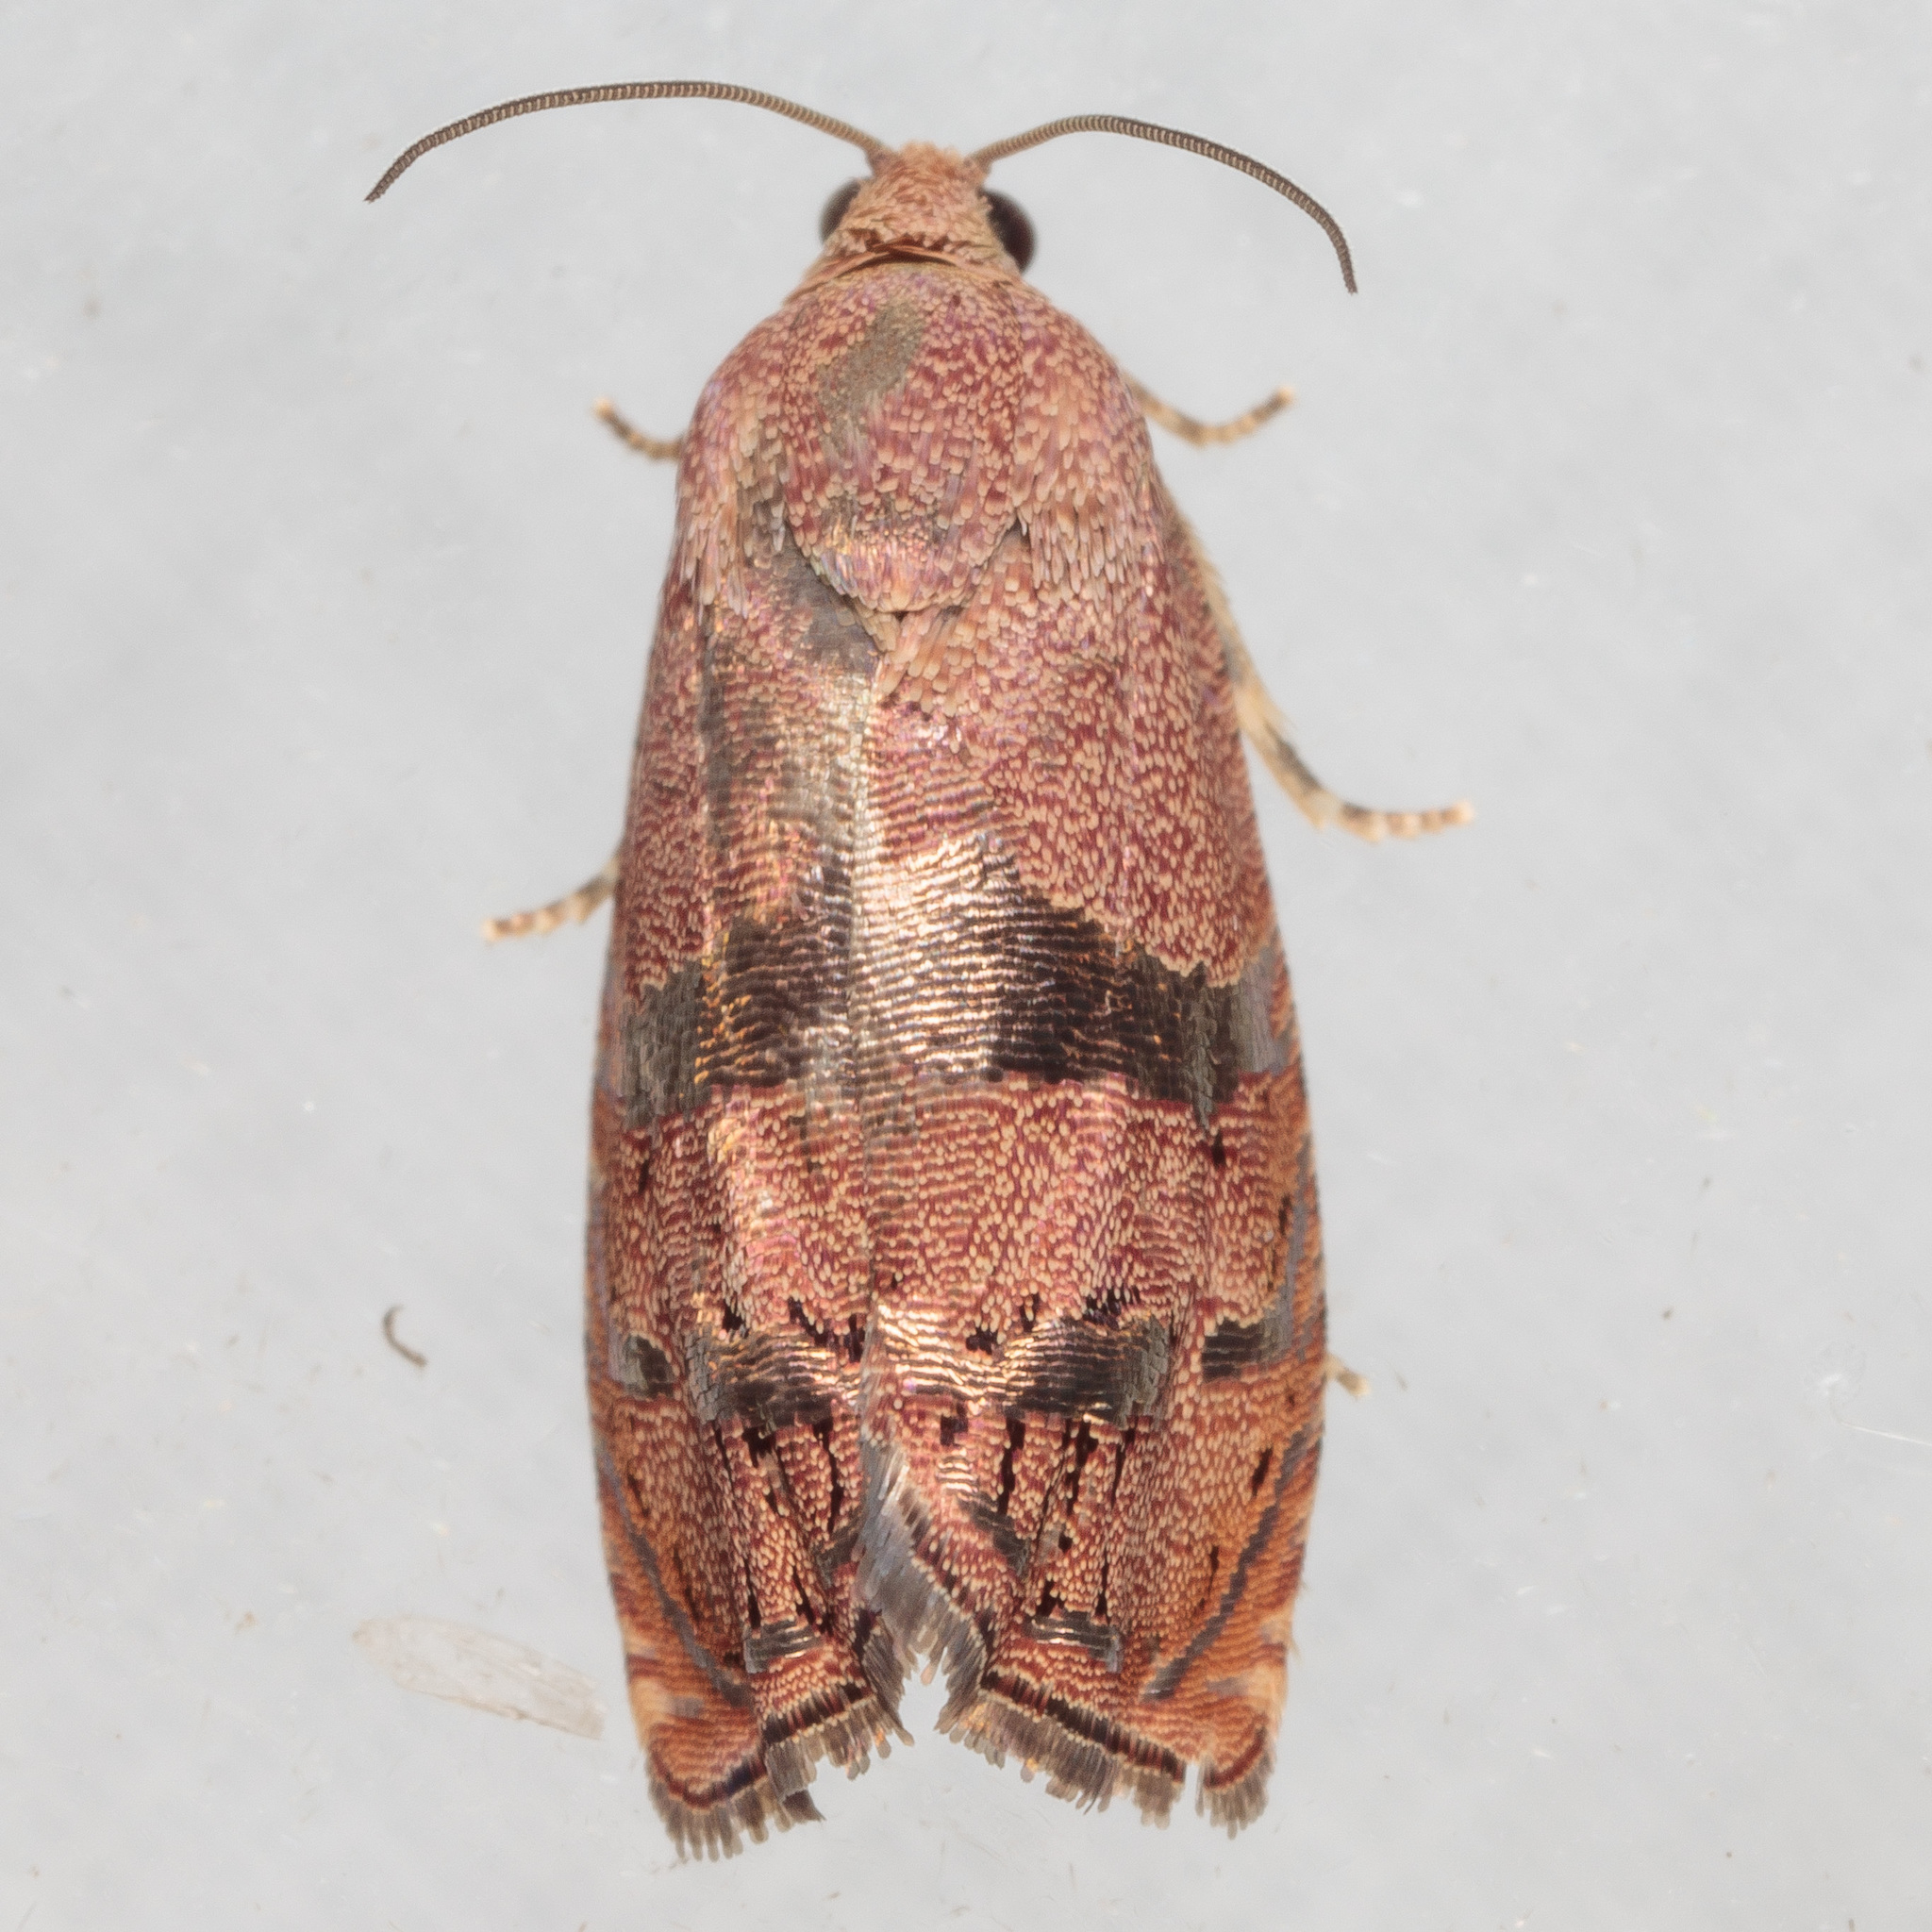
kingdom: Animalia
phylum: Arthropoda
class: Insecta
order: Lepidoptera
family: Tortricidae
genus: Cydia
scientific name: Cydia latiferreana
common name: Filbertworm moth
